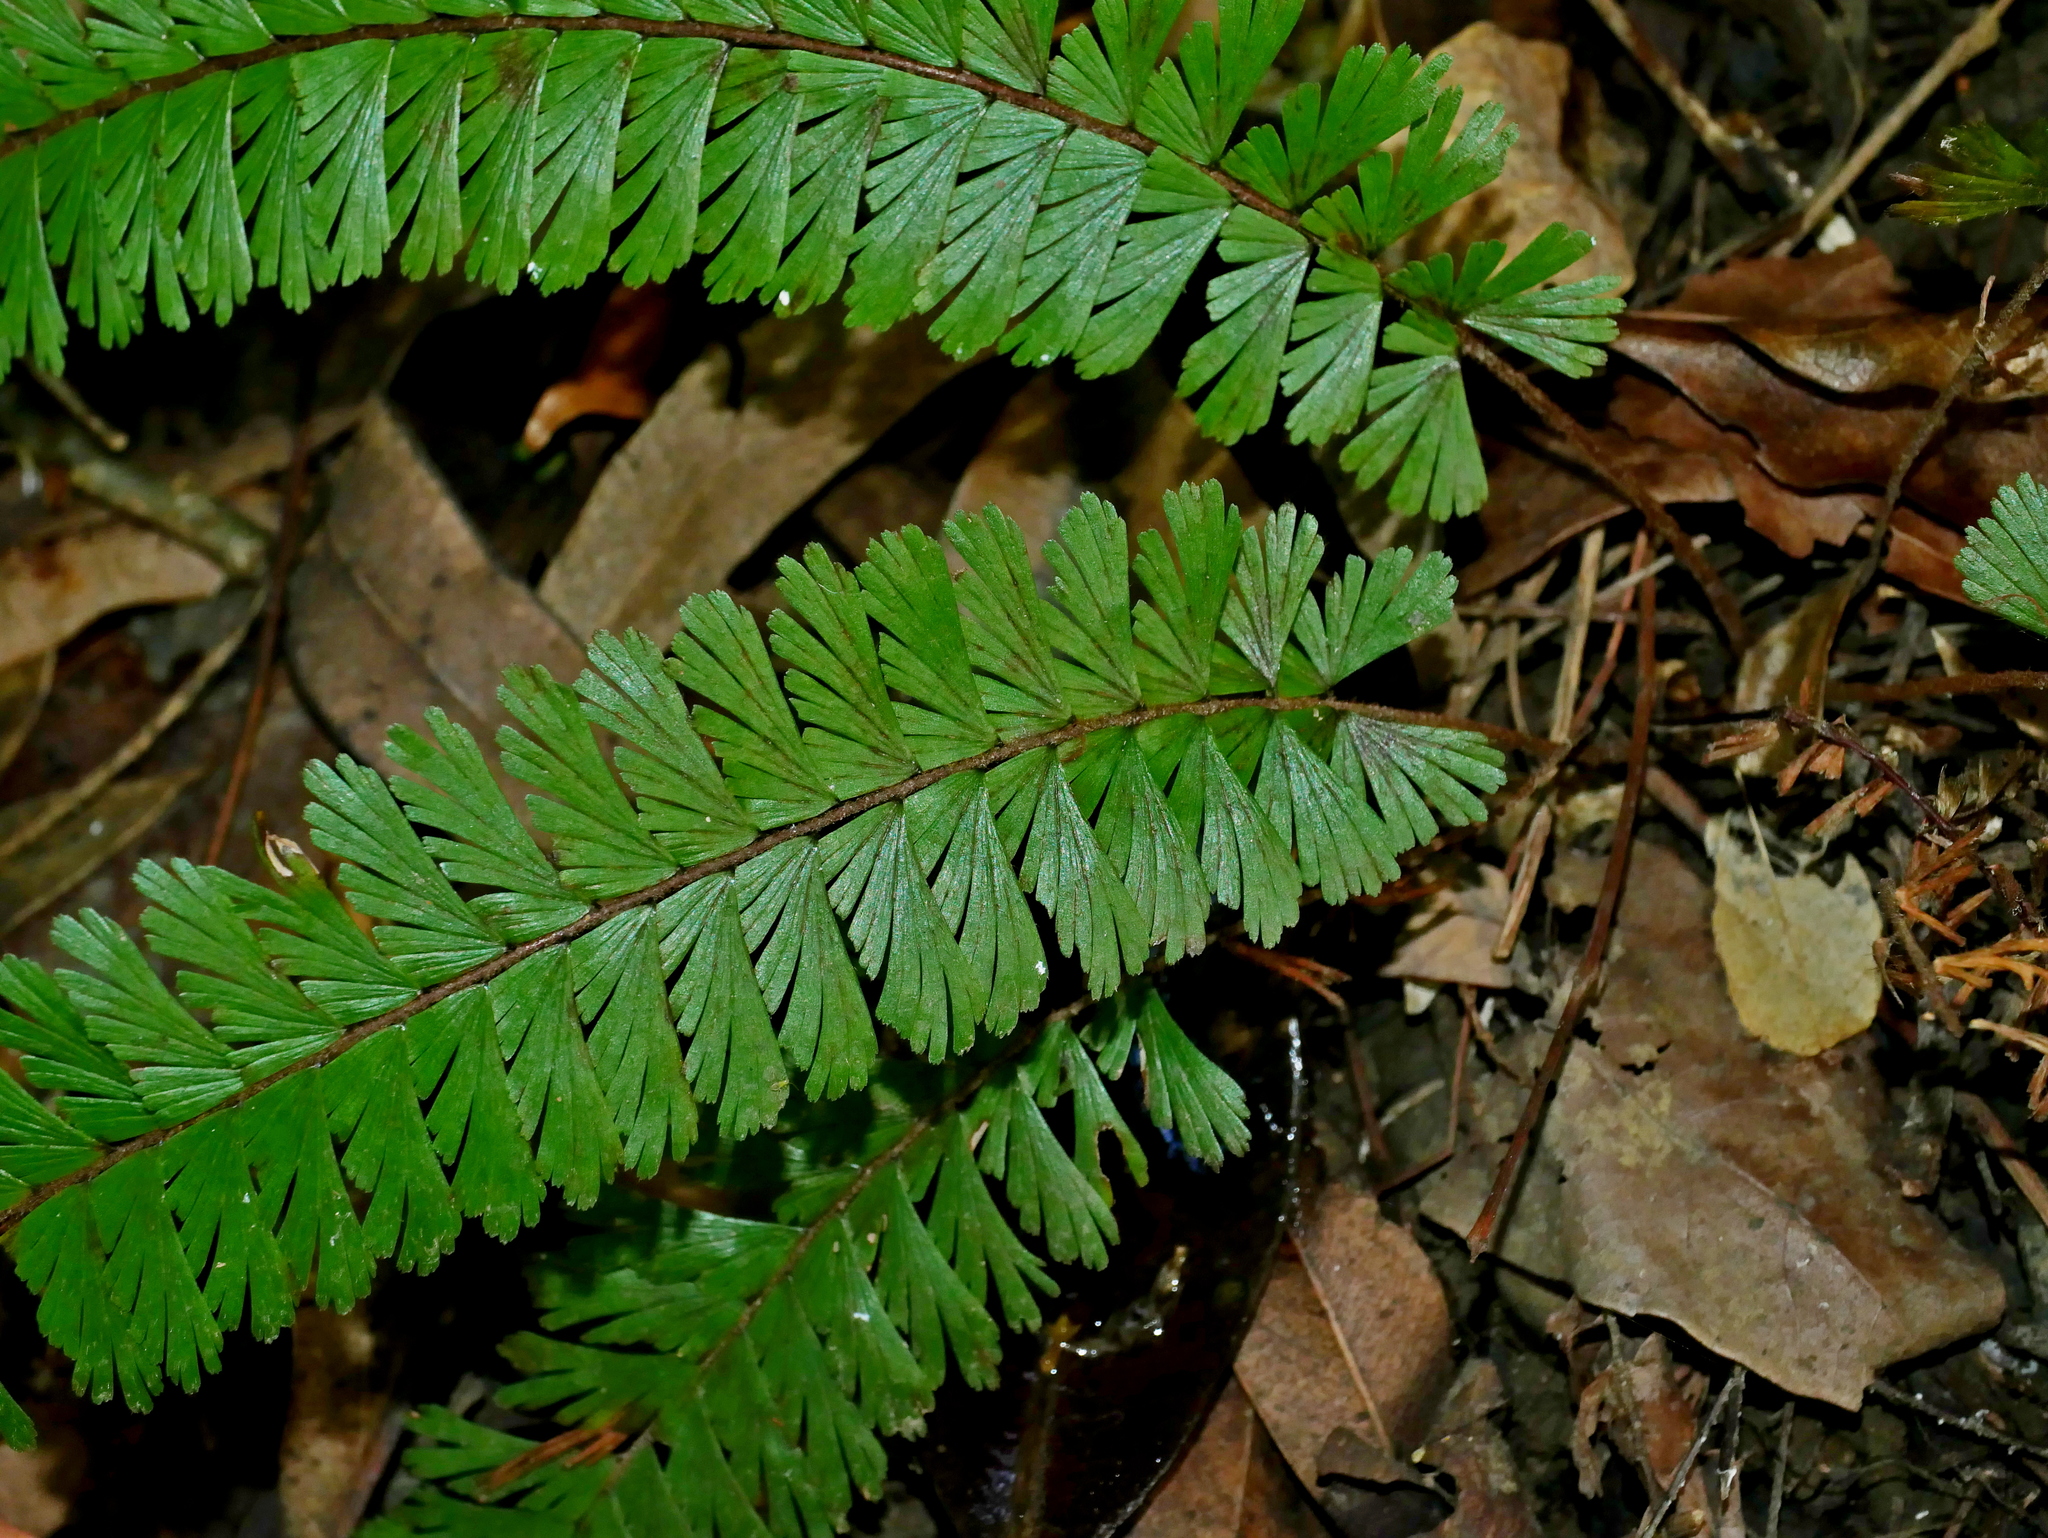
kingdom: Plantae
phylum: Tracheophyta
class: Polypodiopsida
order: Polypodiales
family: Pteridaceae
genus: Adiantum
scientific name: Adiantum caudatum
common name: Tailed maidenhair
